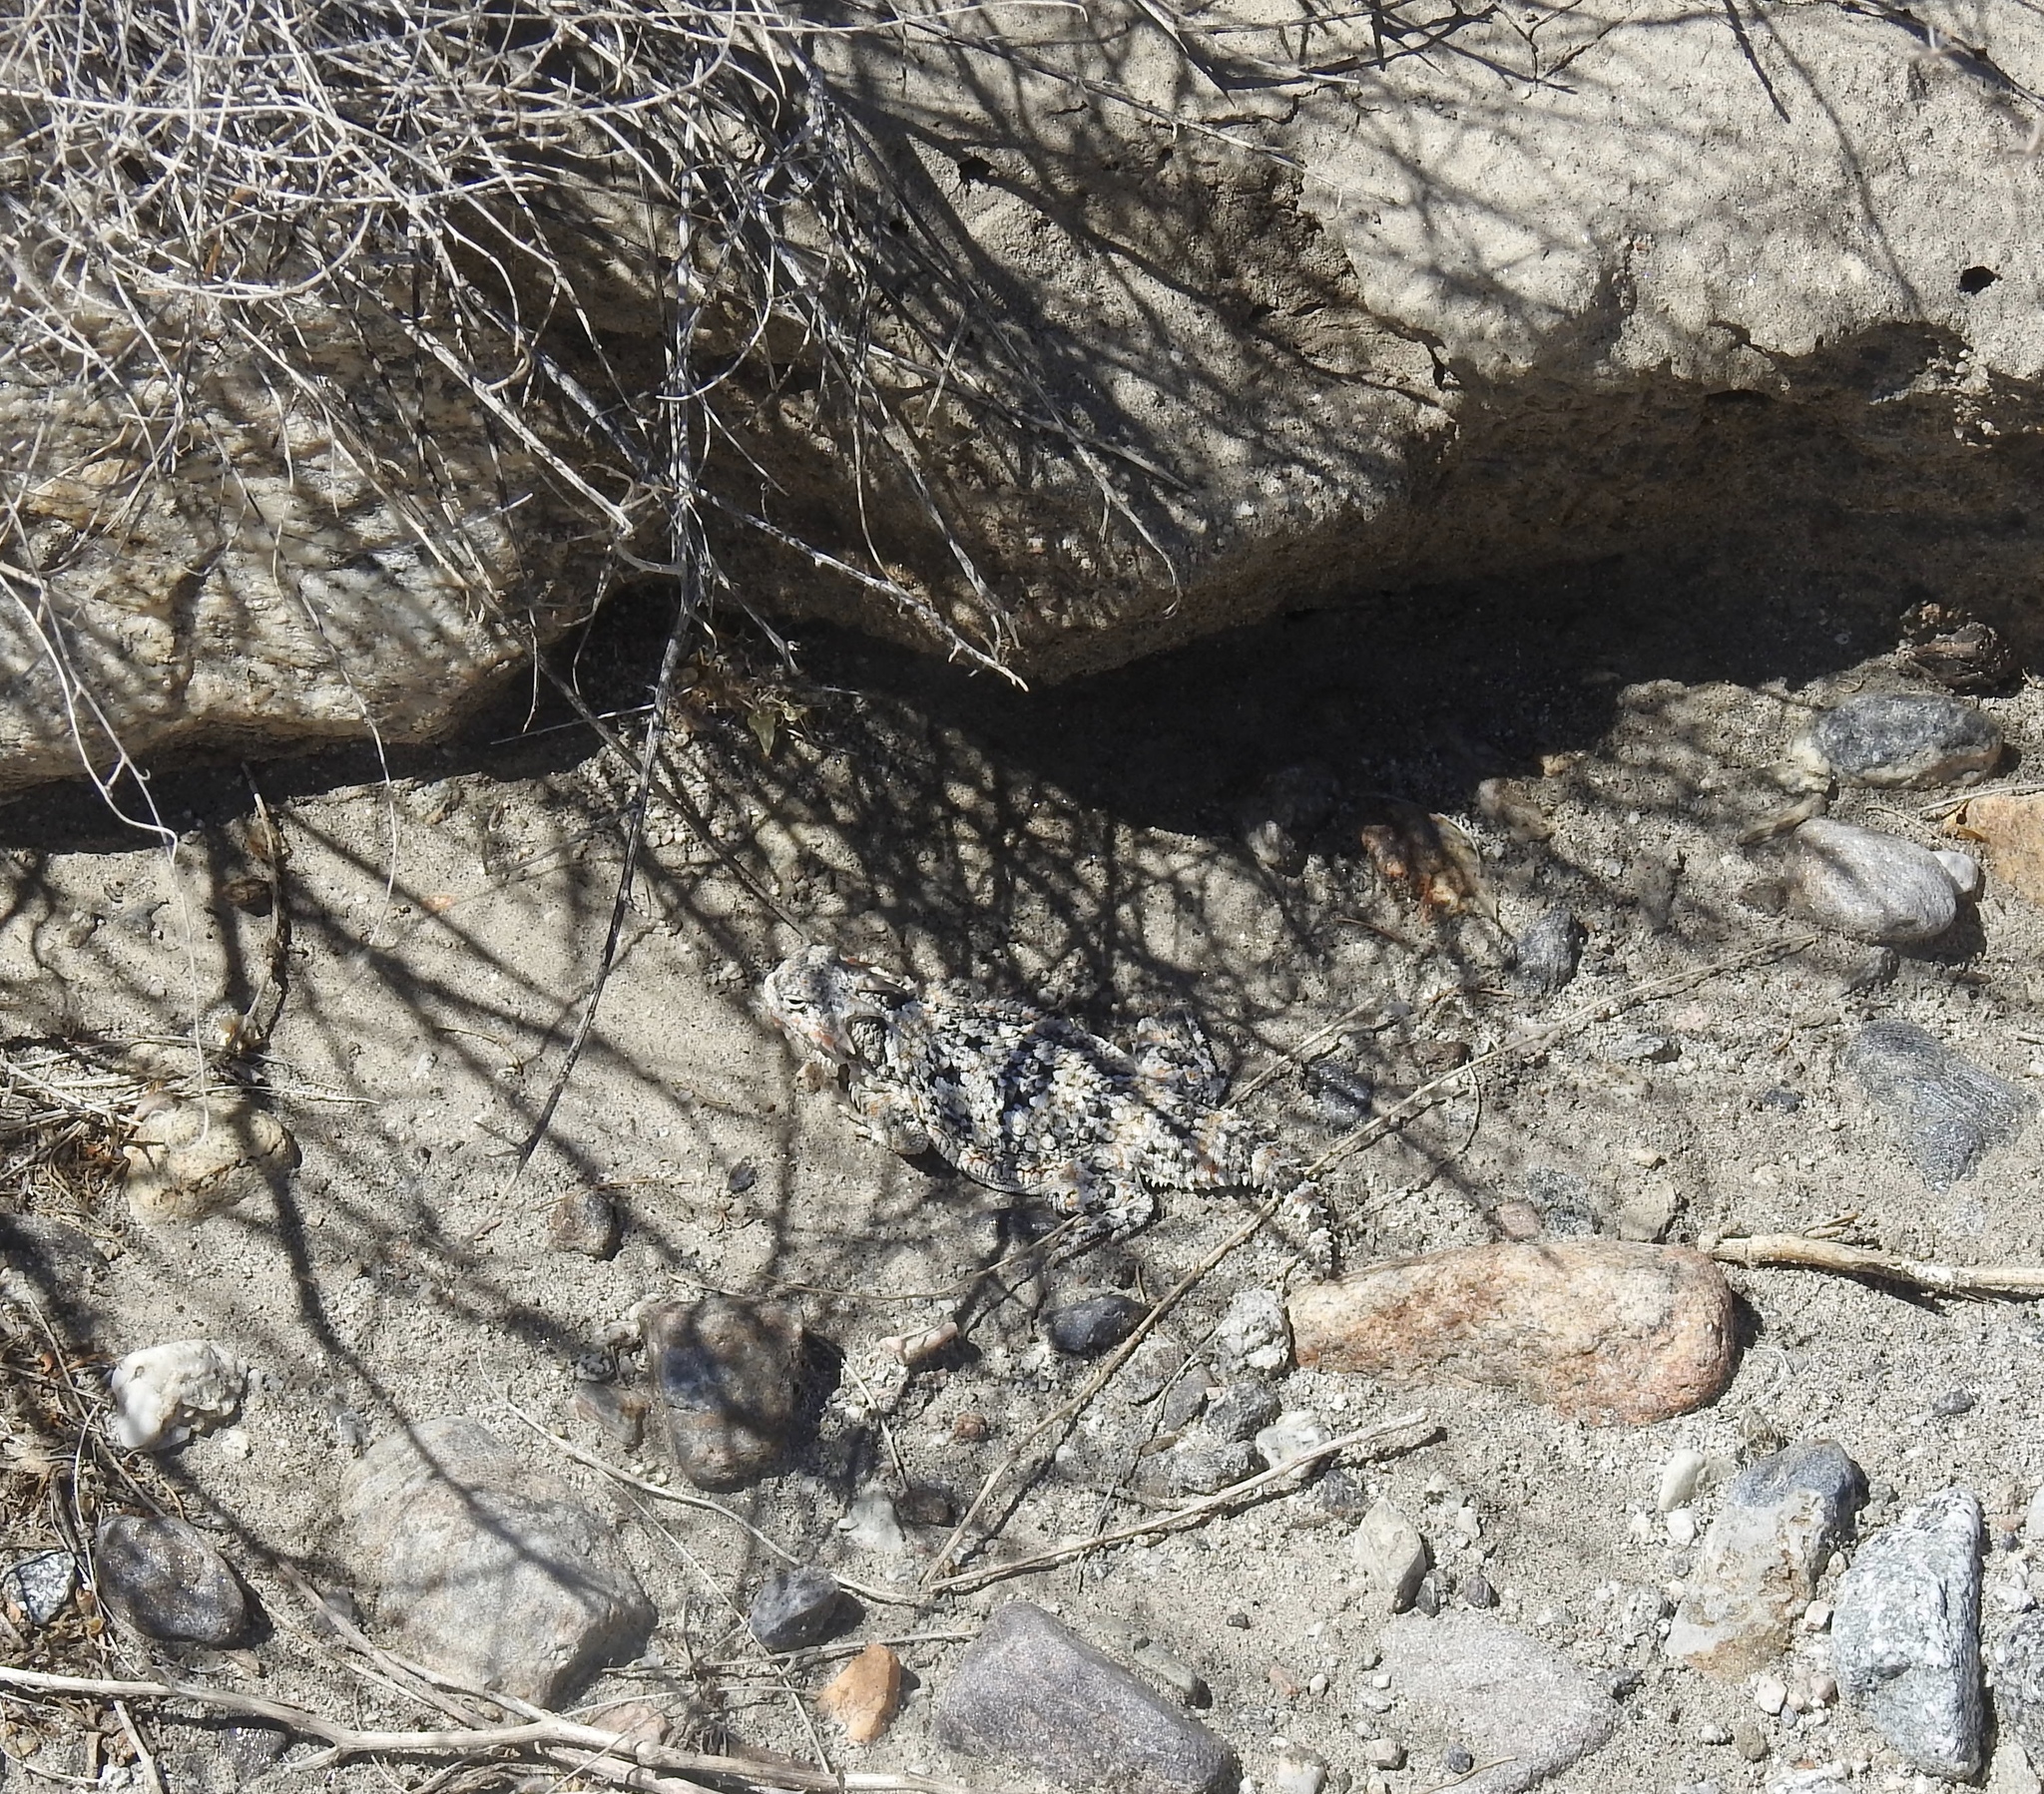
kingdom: Animalia
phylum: Chordata
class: Squamata
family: Phrynosomatidae
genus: Phrynosoma
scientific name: Phrynosoma platyrhinos
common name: Desert horned lizard
